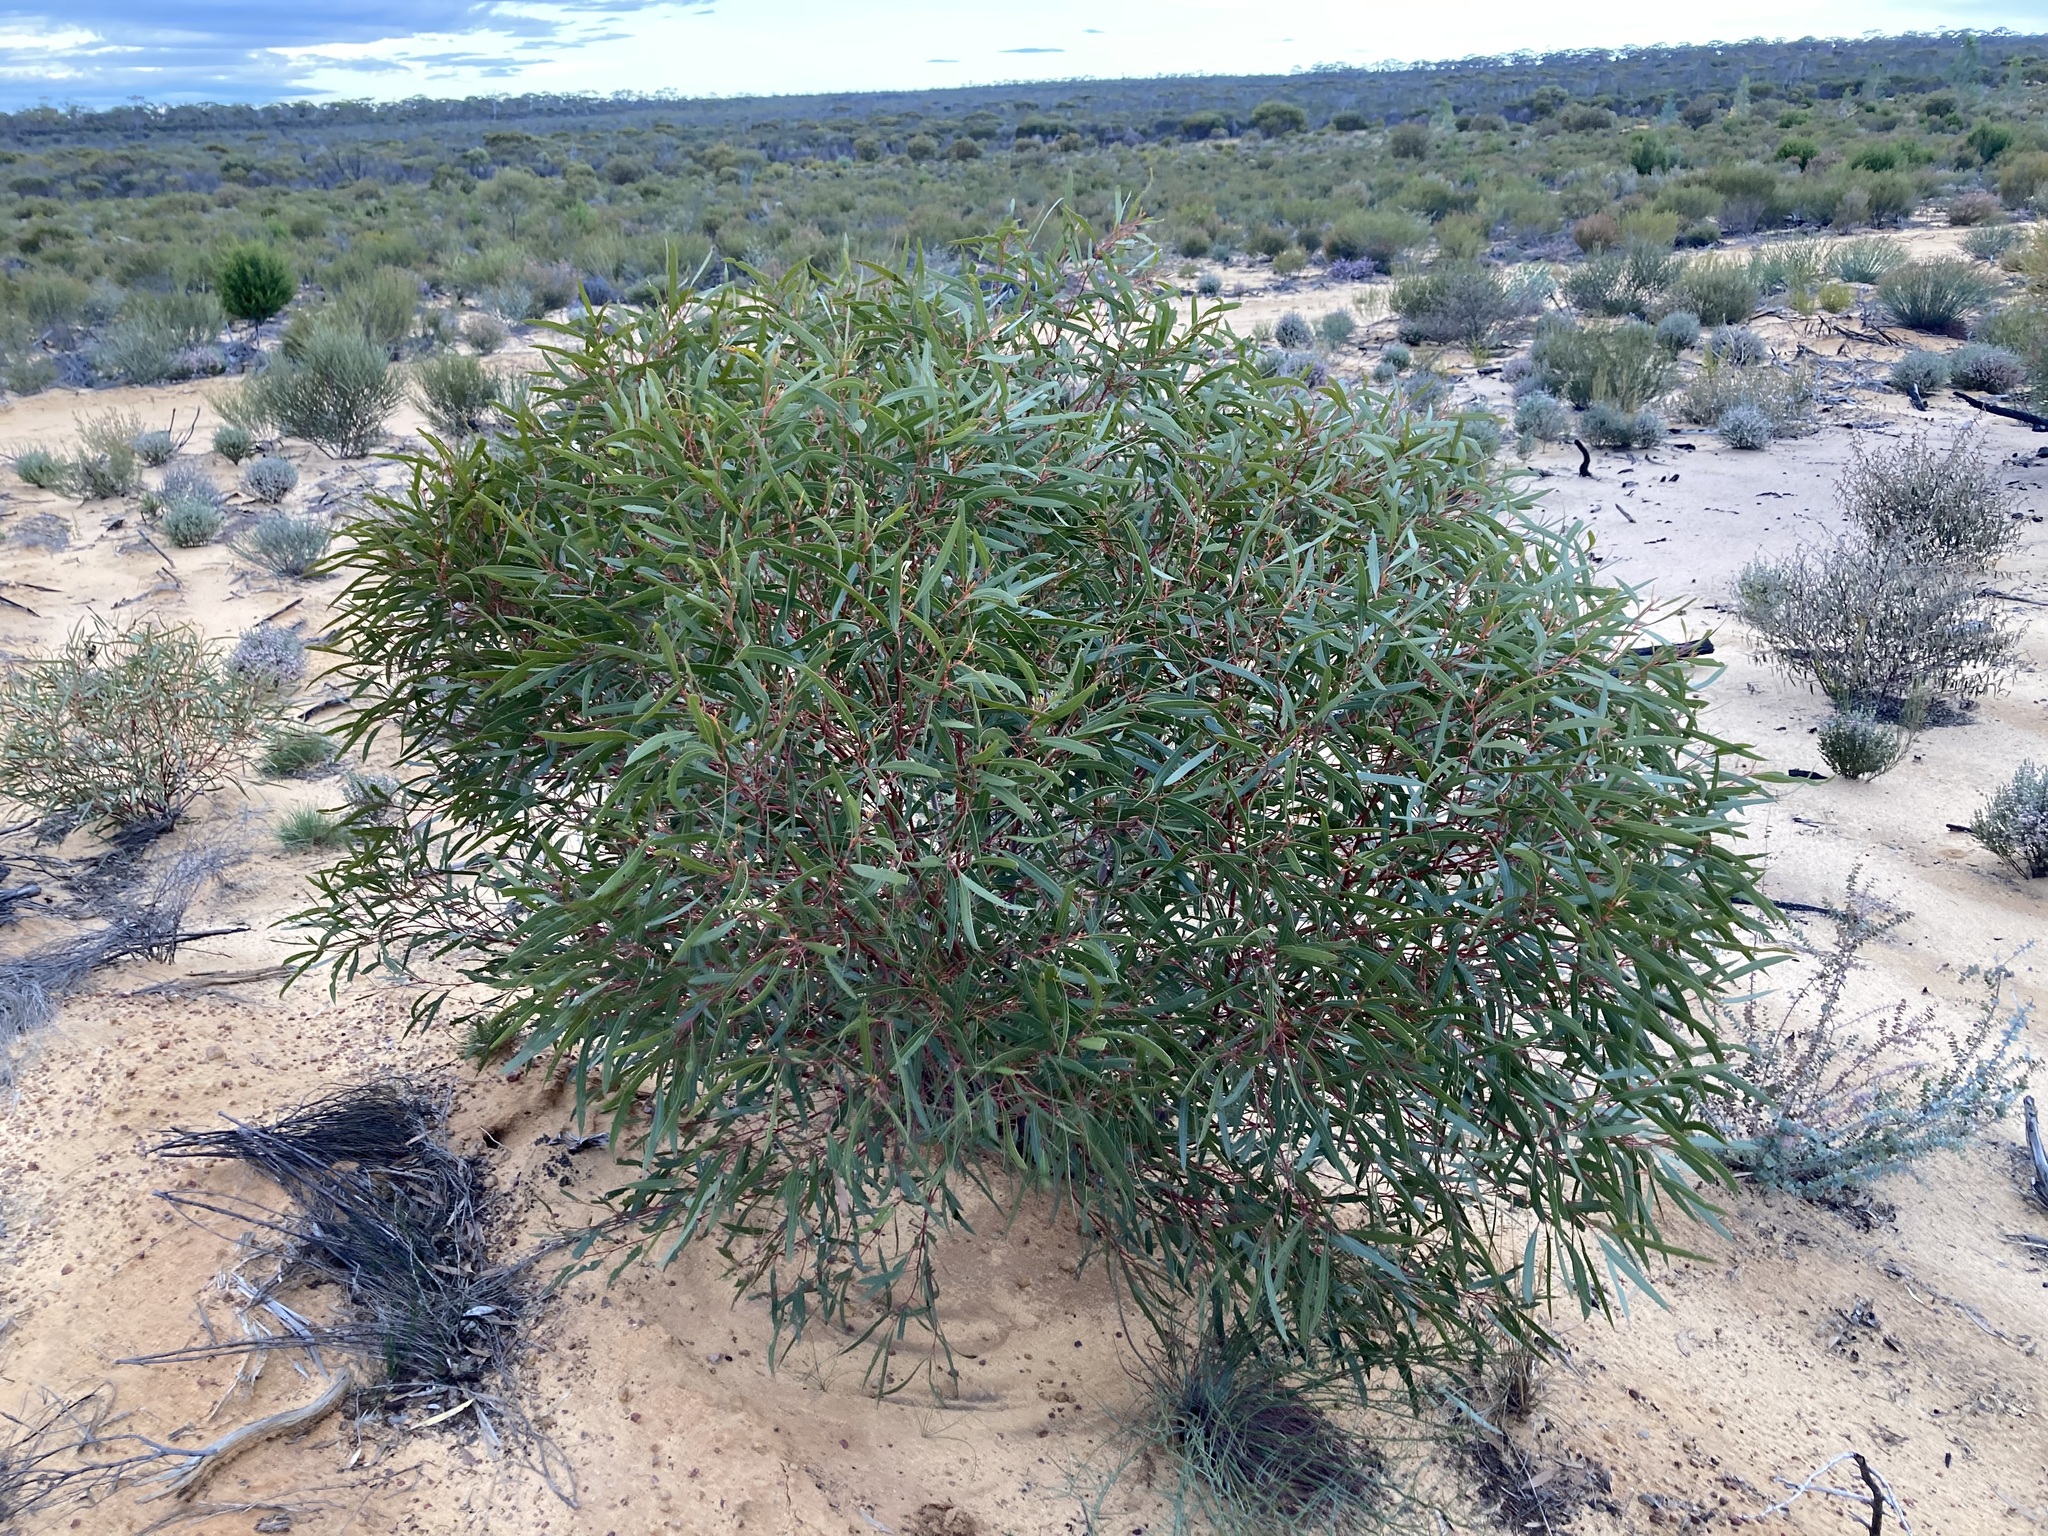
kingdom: Plantae
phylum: Tracheophyta
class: Magnoliopsida
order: Myrtales
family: Myrtaceae
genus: Eucalyptus
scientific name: Eucalyptus rigidula
